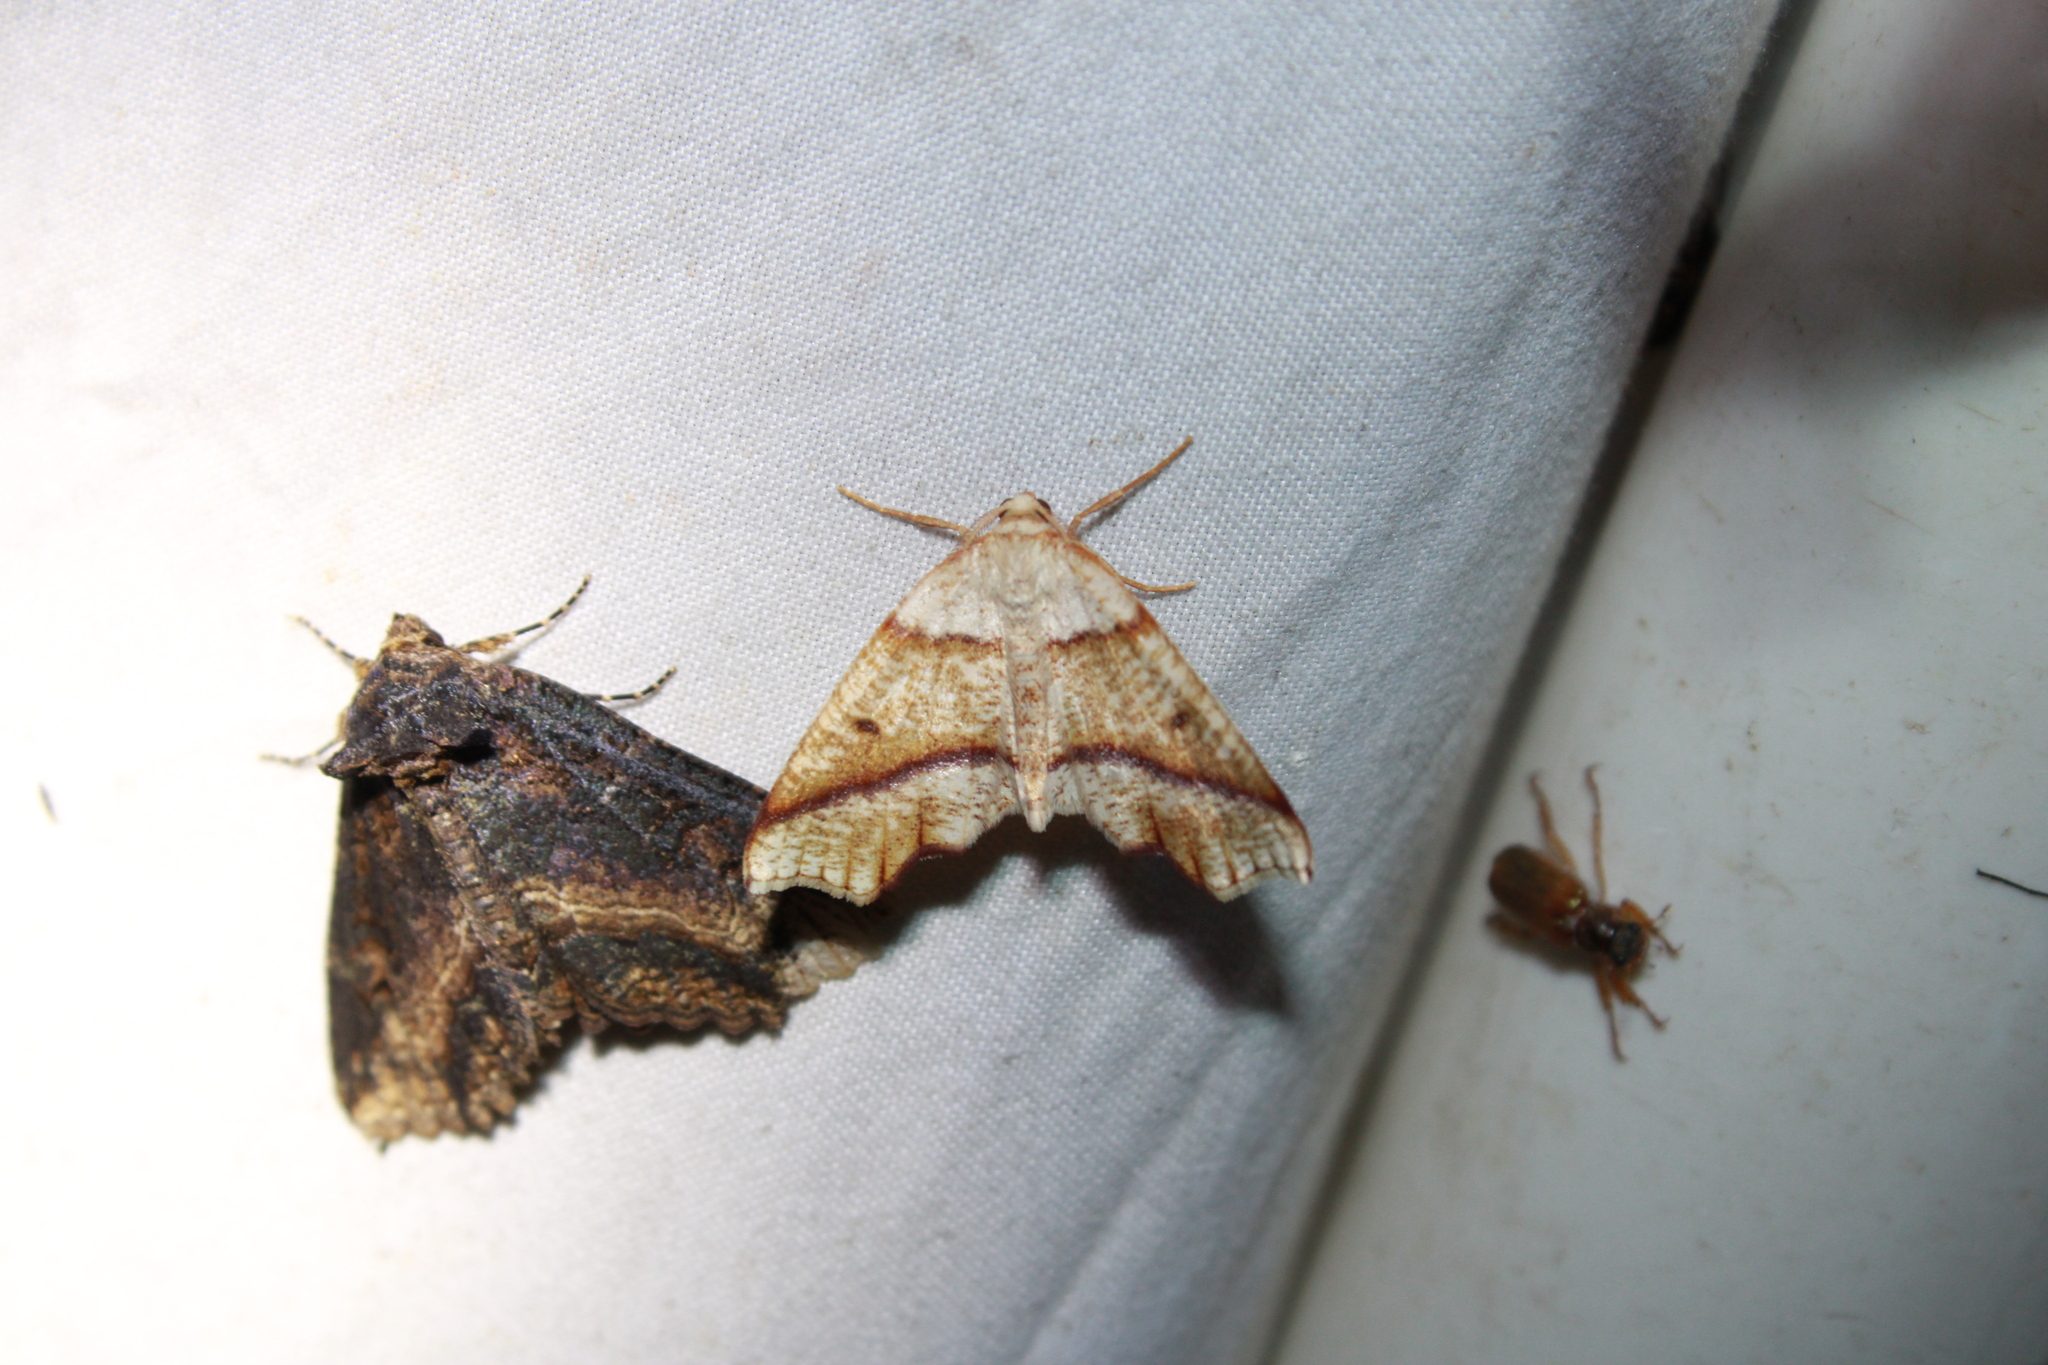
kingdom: Animalia
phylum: Arthropoda
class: Insecta
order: Lepidoptera
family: Geometridae
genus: Plagodis
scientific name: Plagodis alcoolaria
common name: Hollow-spotted plagodis
